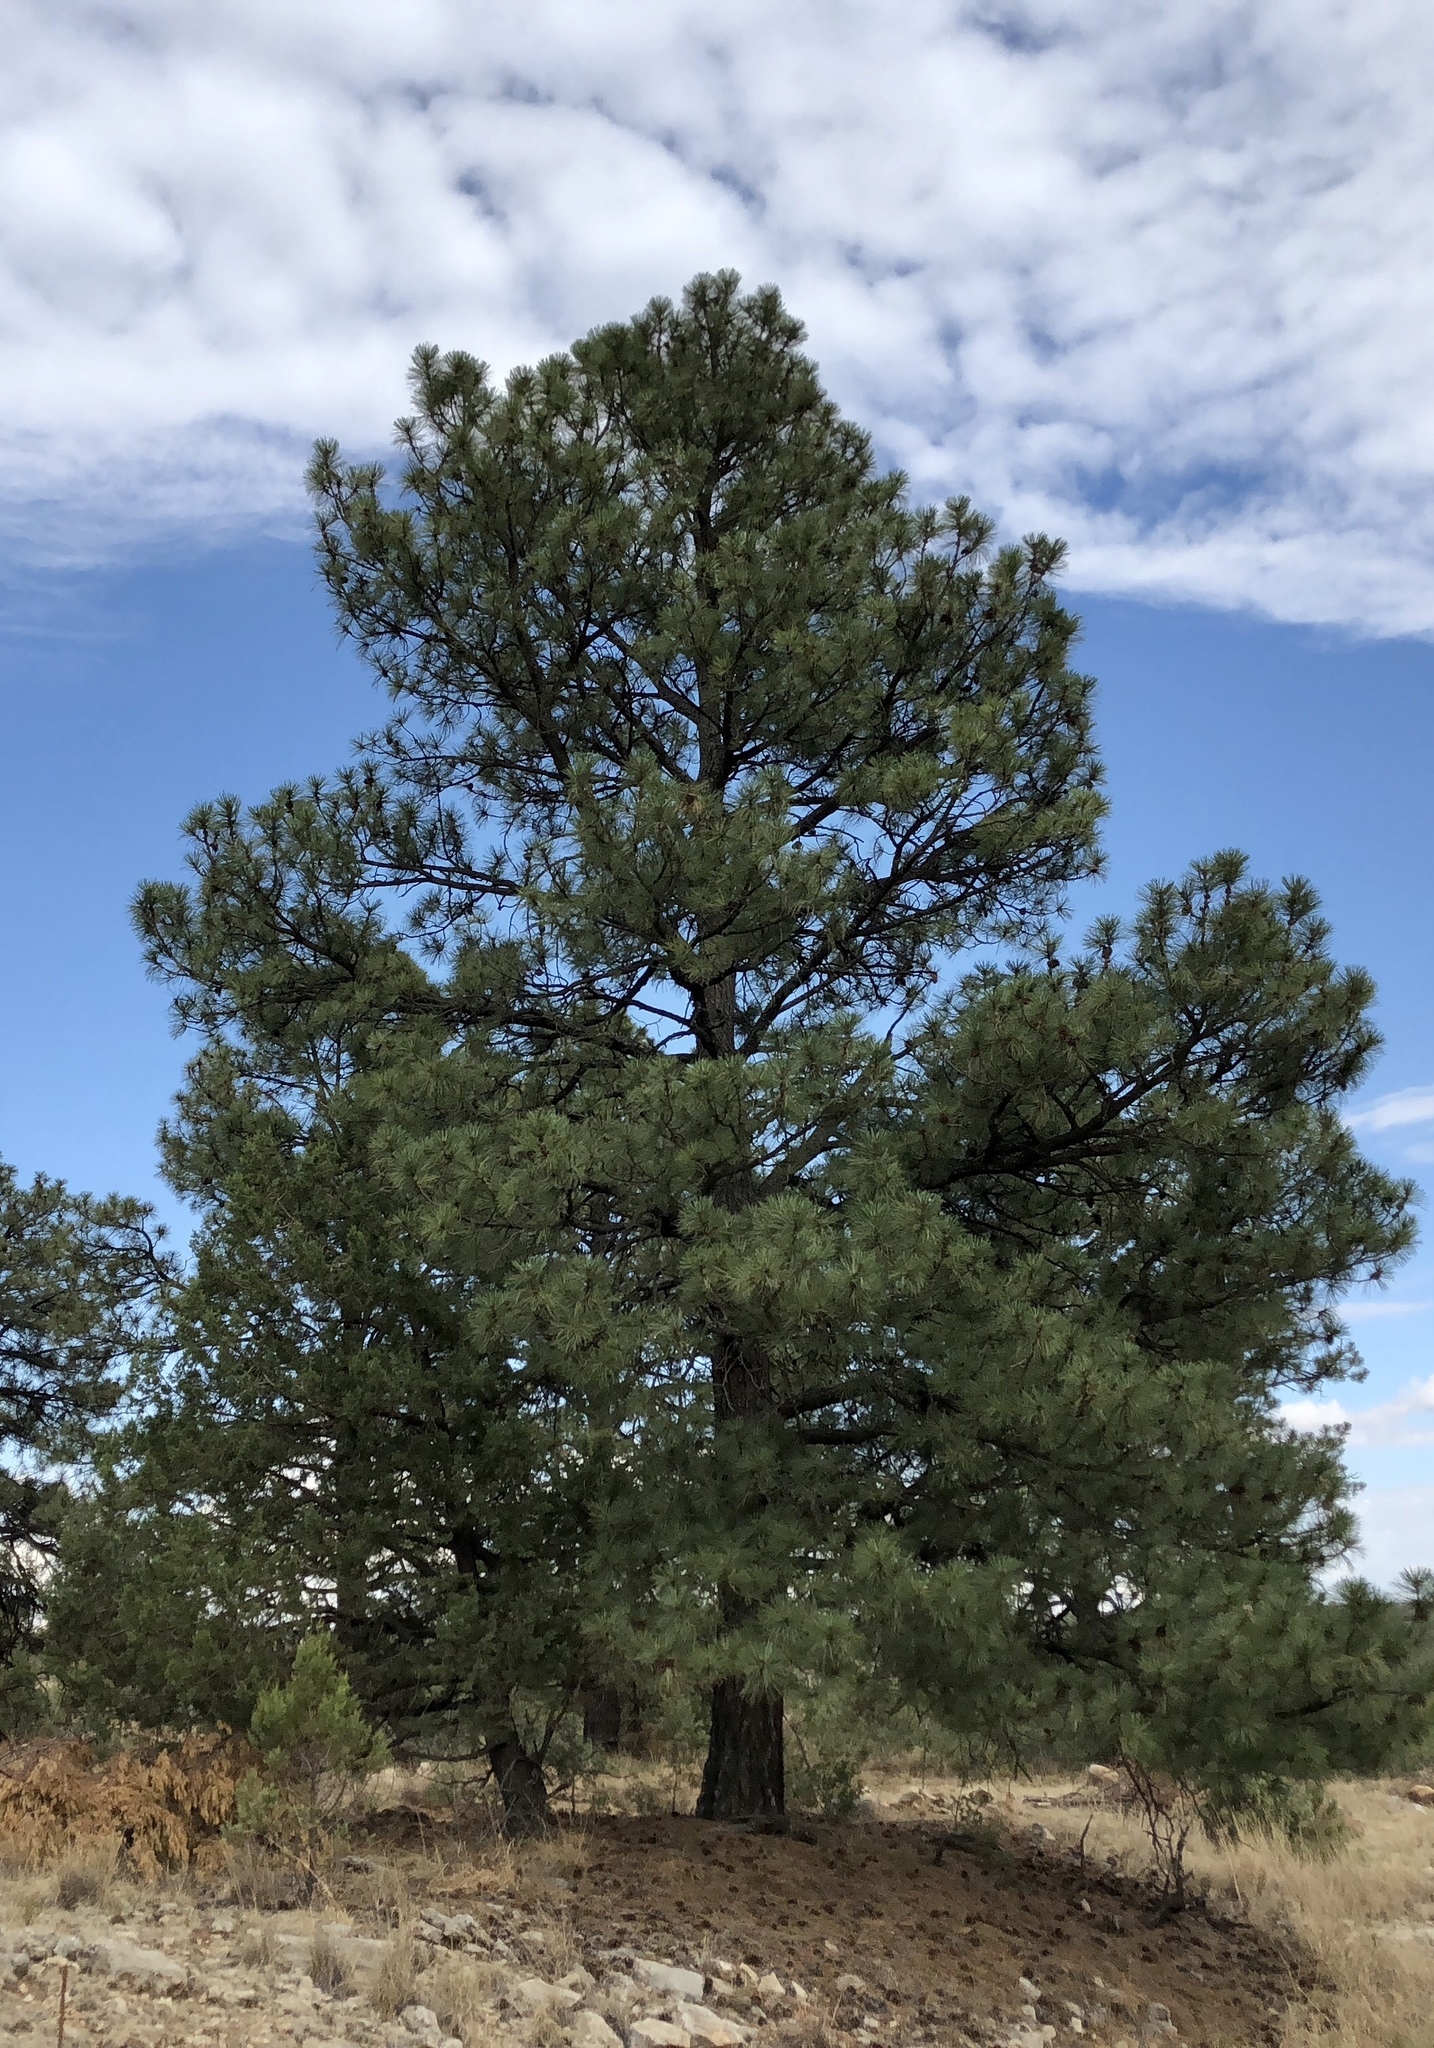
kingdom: Plantae
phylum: Tracheophyta
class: Pinopsida
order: Pinales
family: Pinaceae
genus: Pinus
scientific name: Pinus ponderosa
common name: Western yellow-pine
